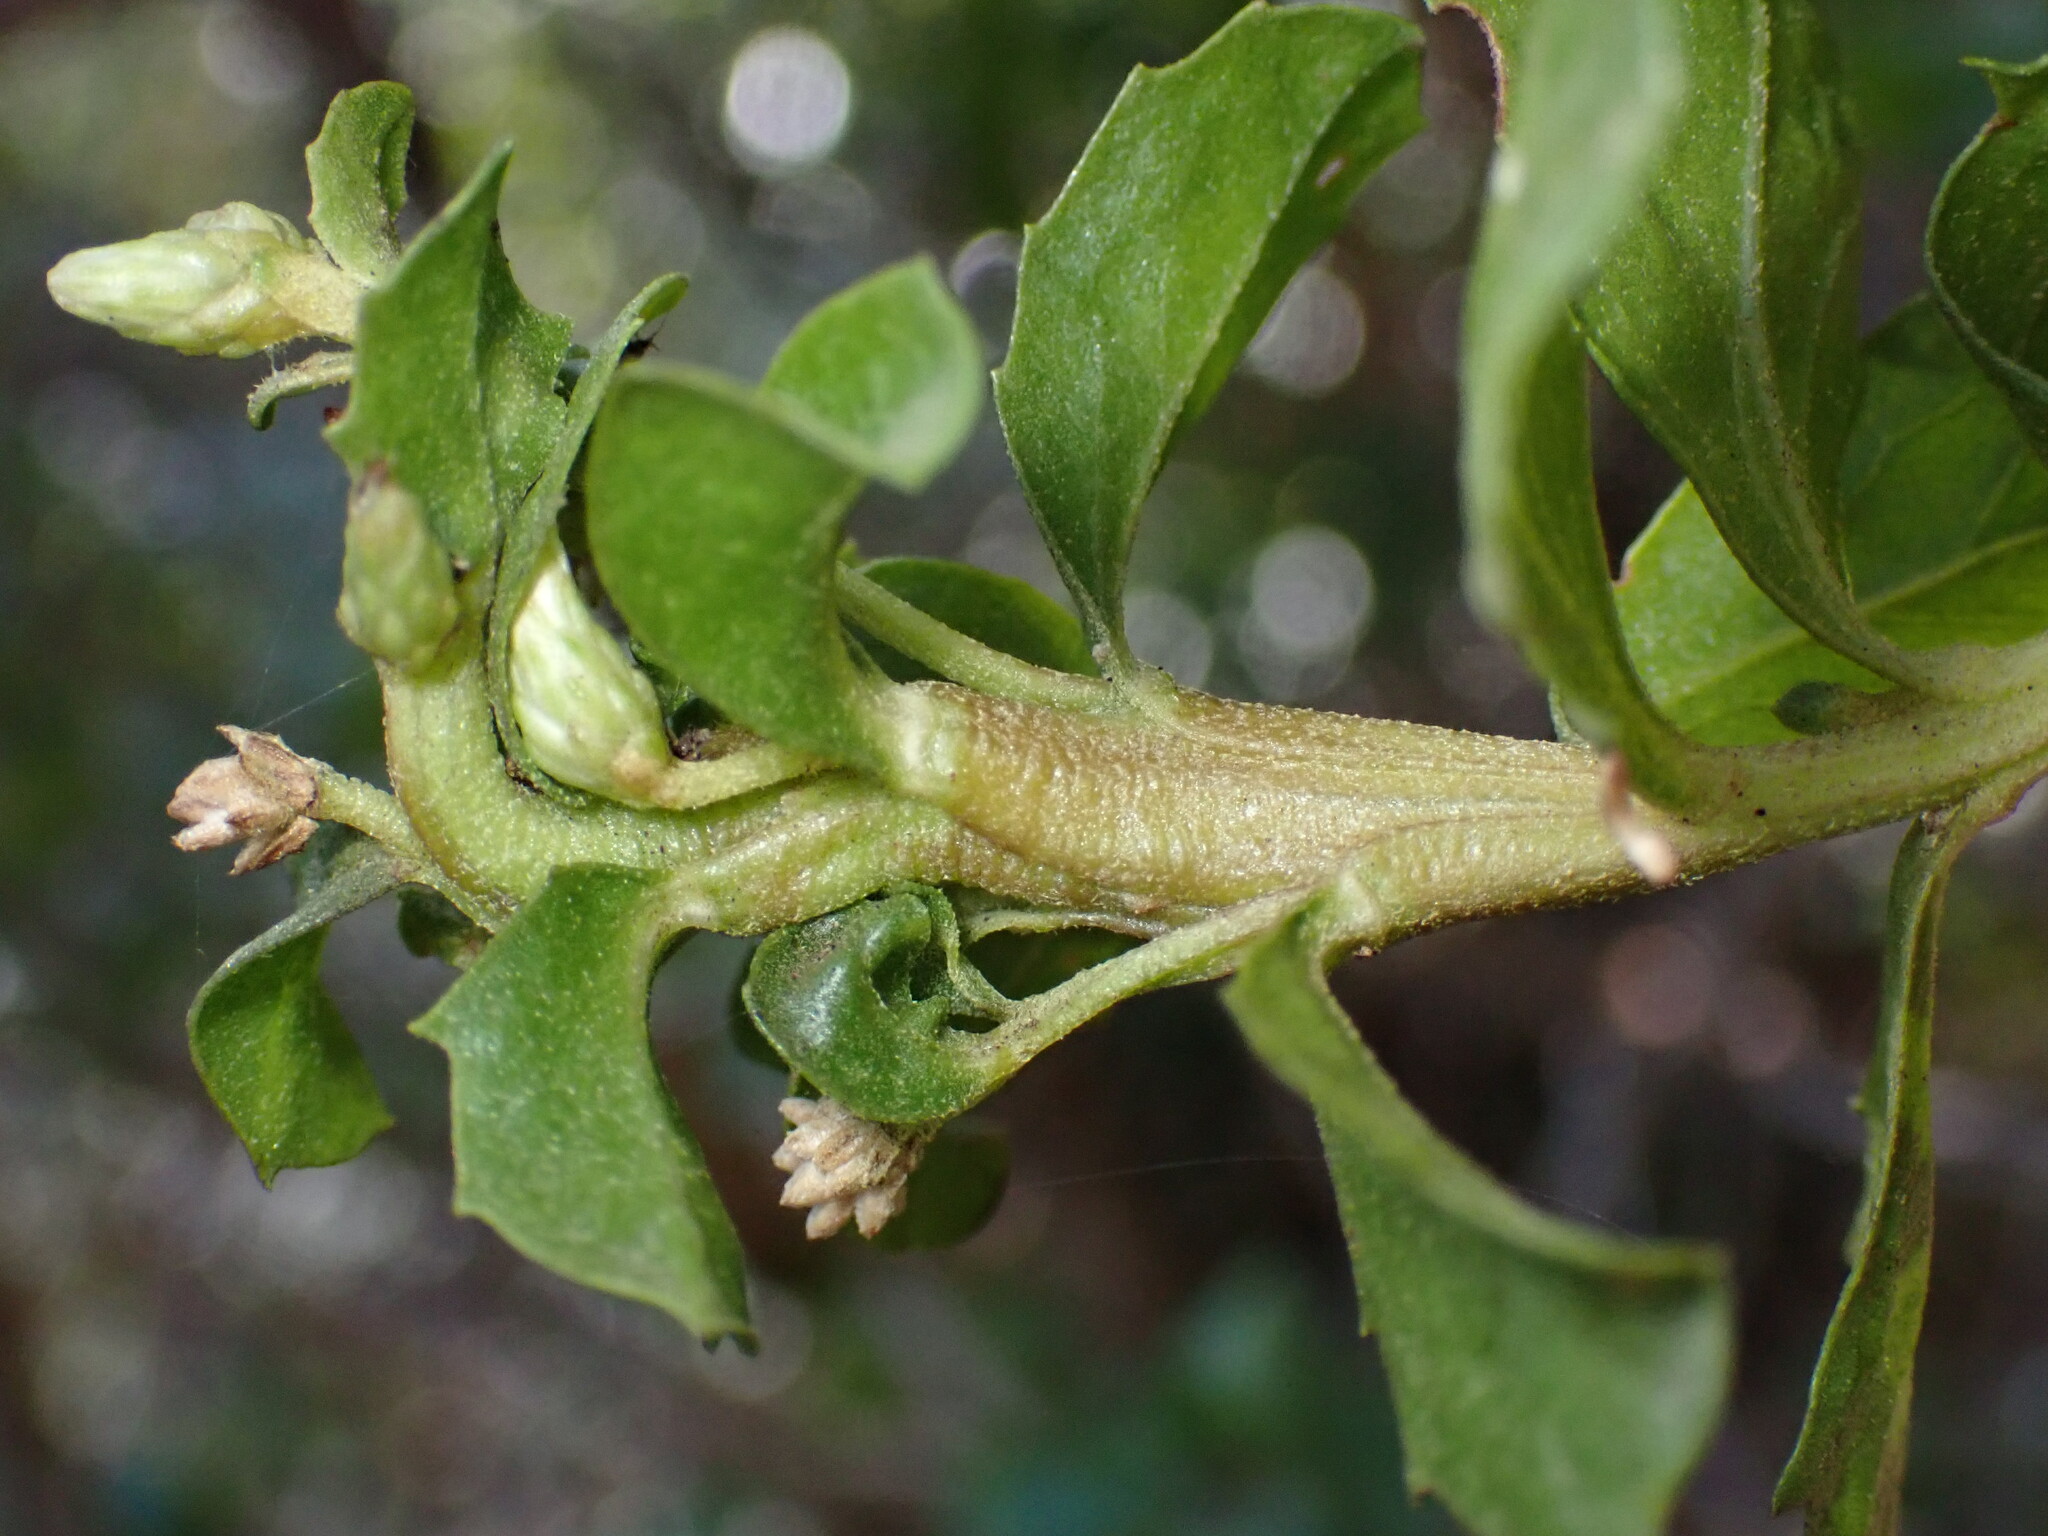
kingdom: Animalia
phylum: Arthropoda
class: Insecta
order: Diptera
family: Cecidomyiidae
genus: Rhopalomyia
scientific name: Rhopalomyia baccharis
